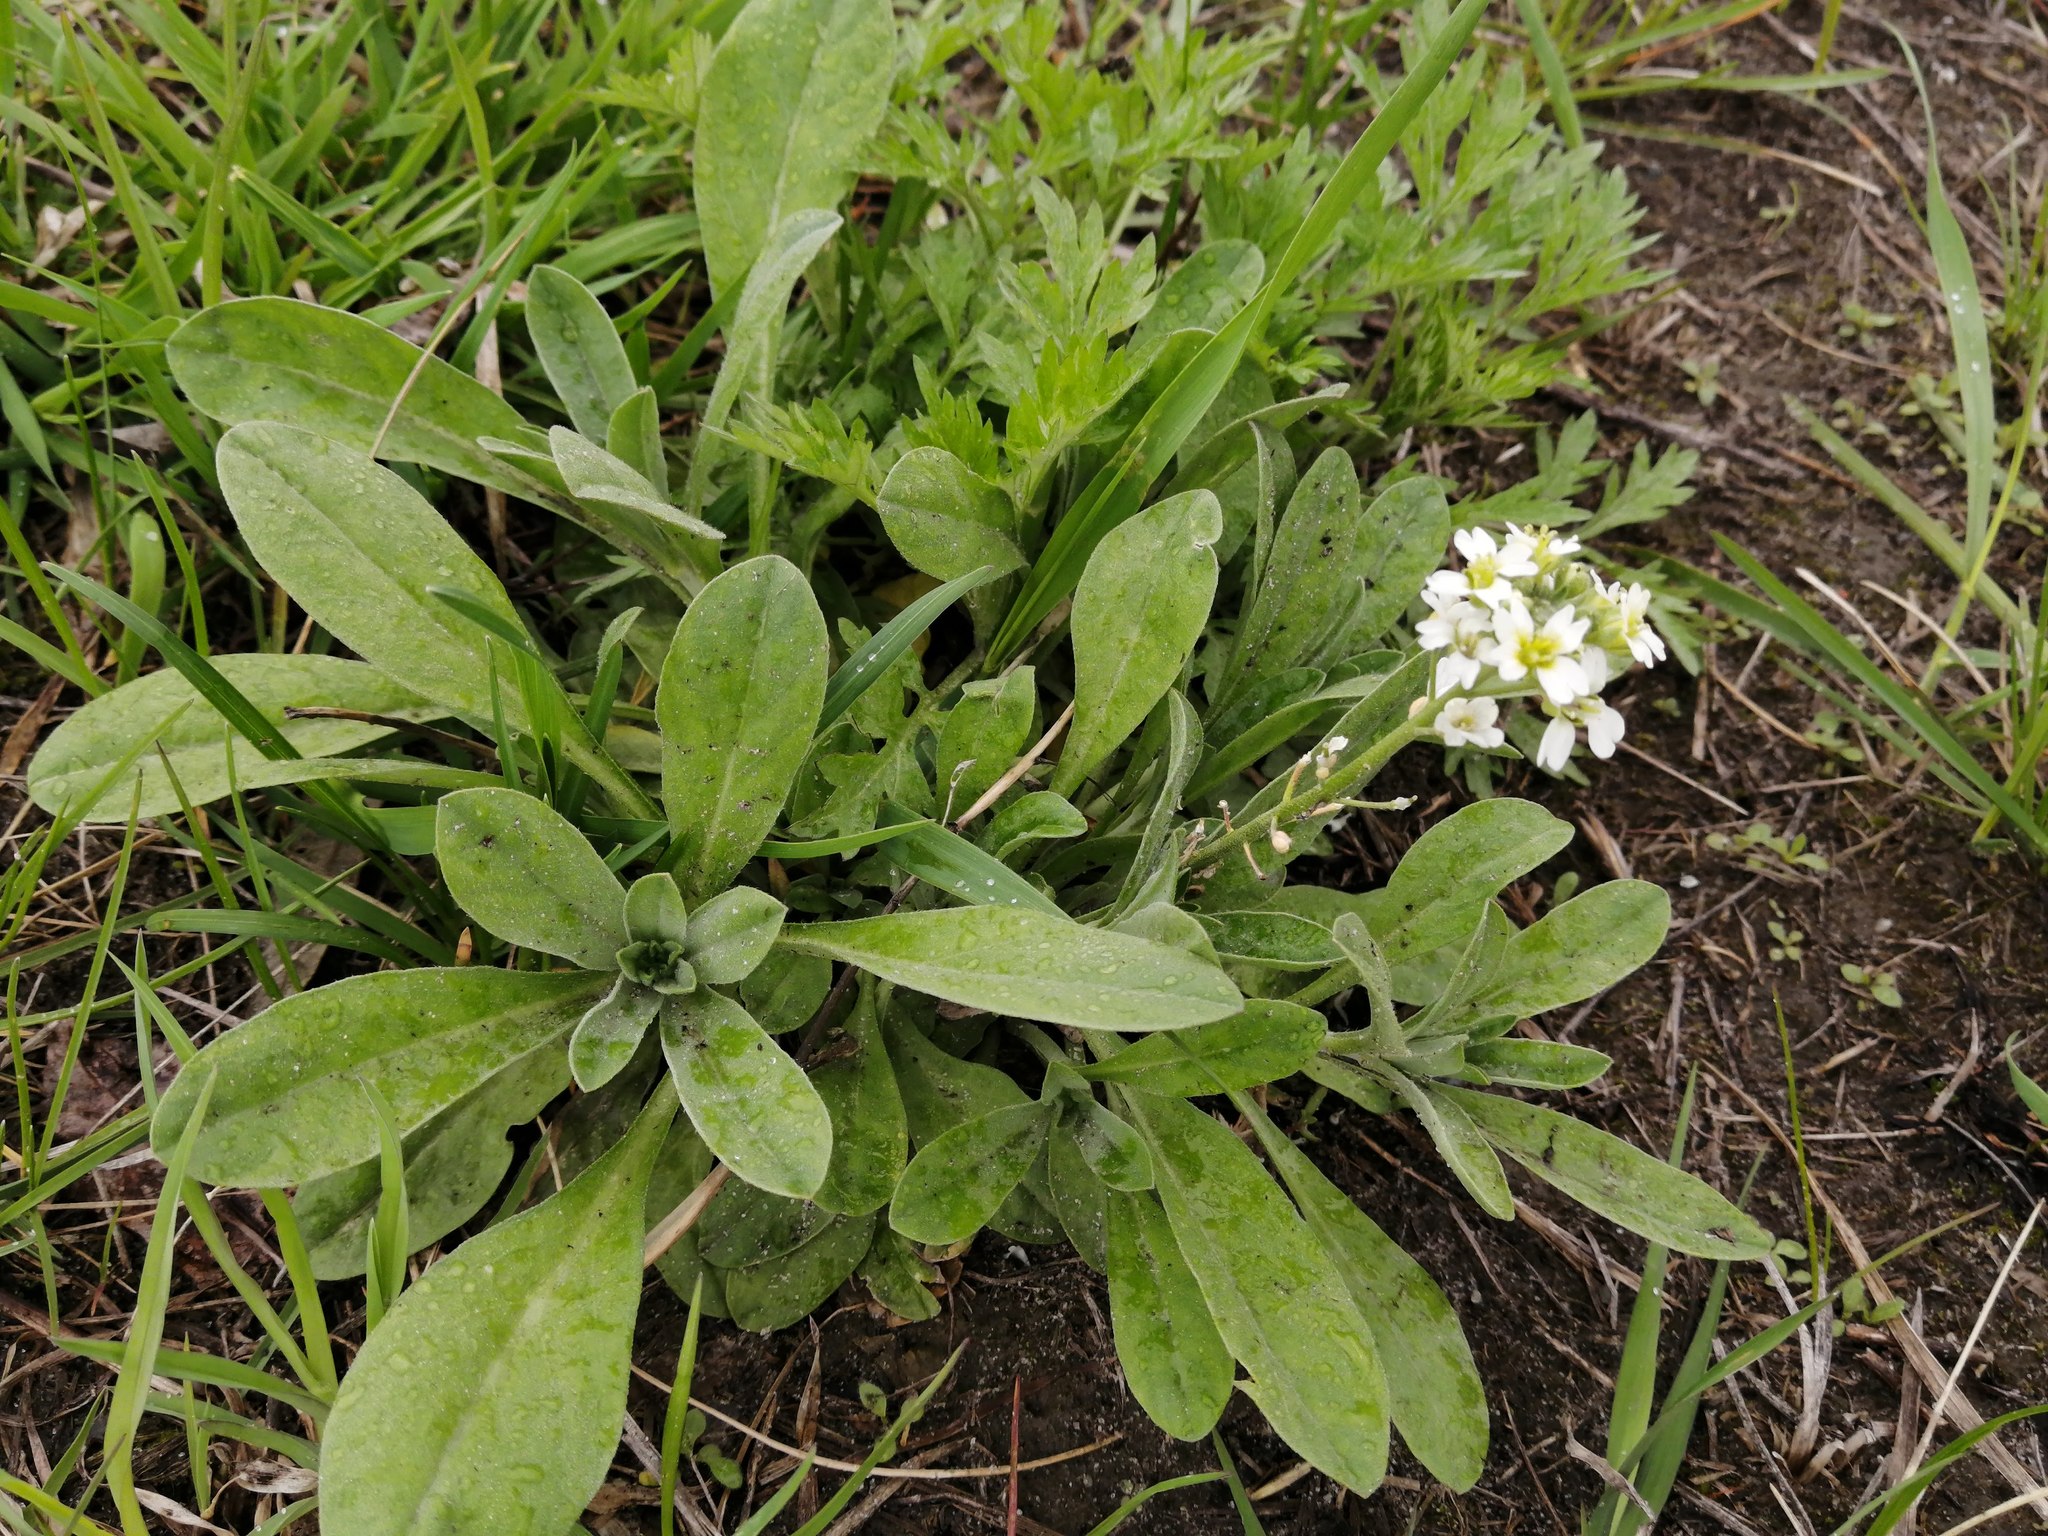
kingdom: Plantae
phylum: Tracheophyta
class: Magnoliopsida
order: Brassicales
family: Brassicaceae
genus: Berteroa
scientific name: Berteroa incana
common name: Hoary alison
